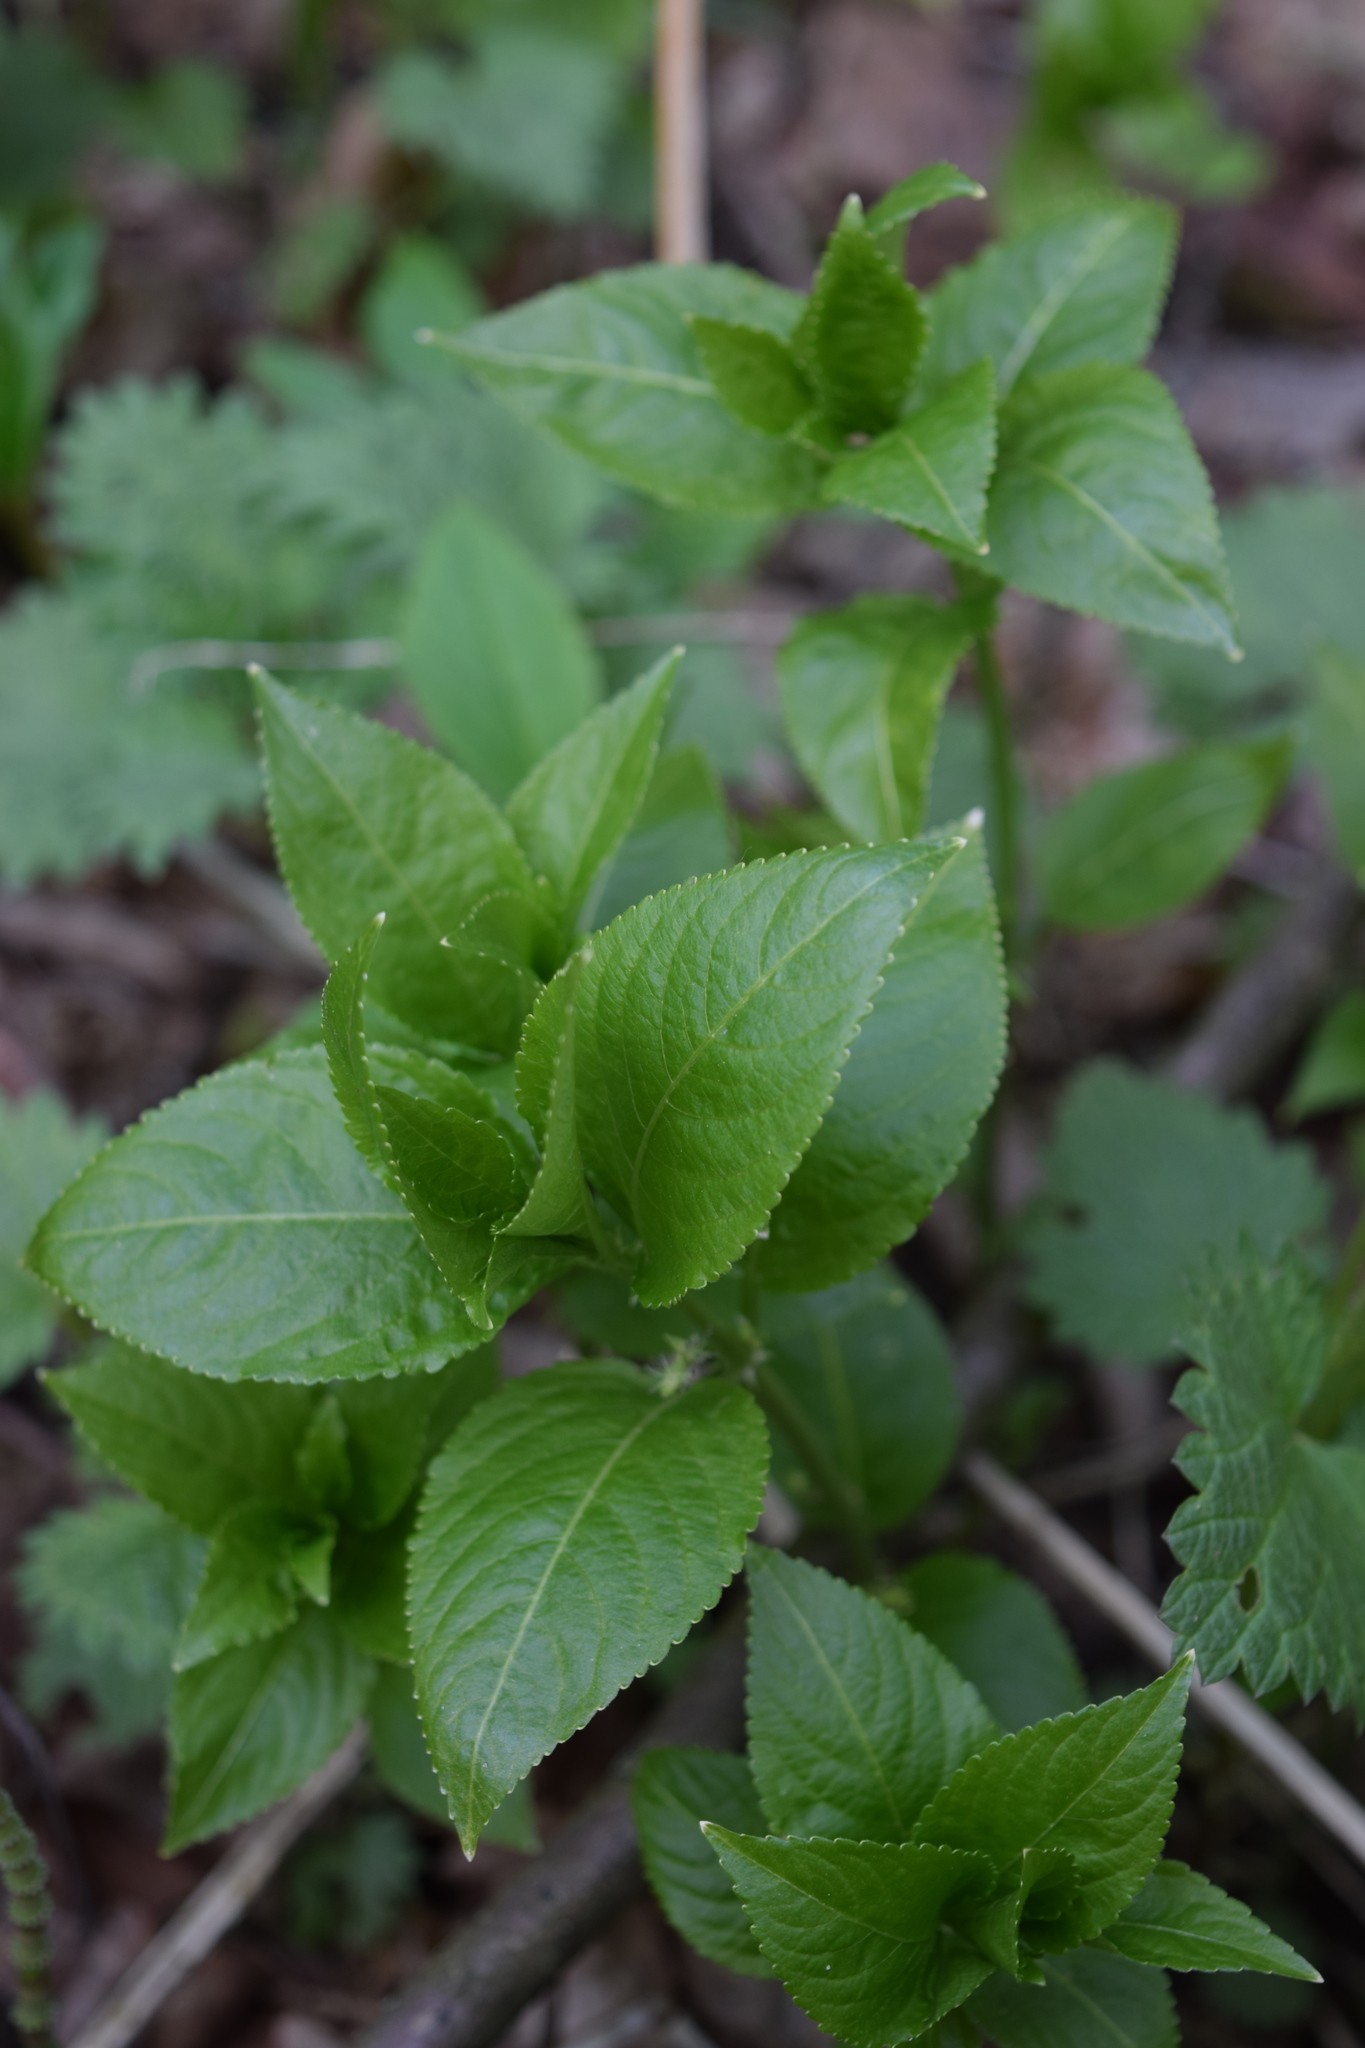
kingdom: Plantae
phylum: Tracheophyta
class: Magnoliopsida
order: Malpighiales
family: Euphorbiaceae
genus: Mercurialis
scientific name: Mercurialis perennis
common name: Dog mercury
